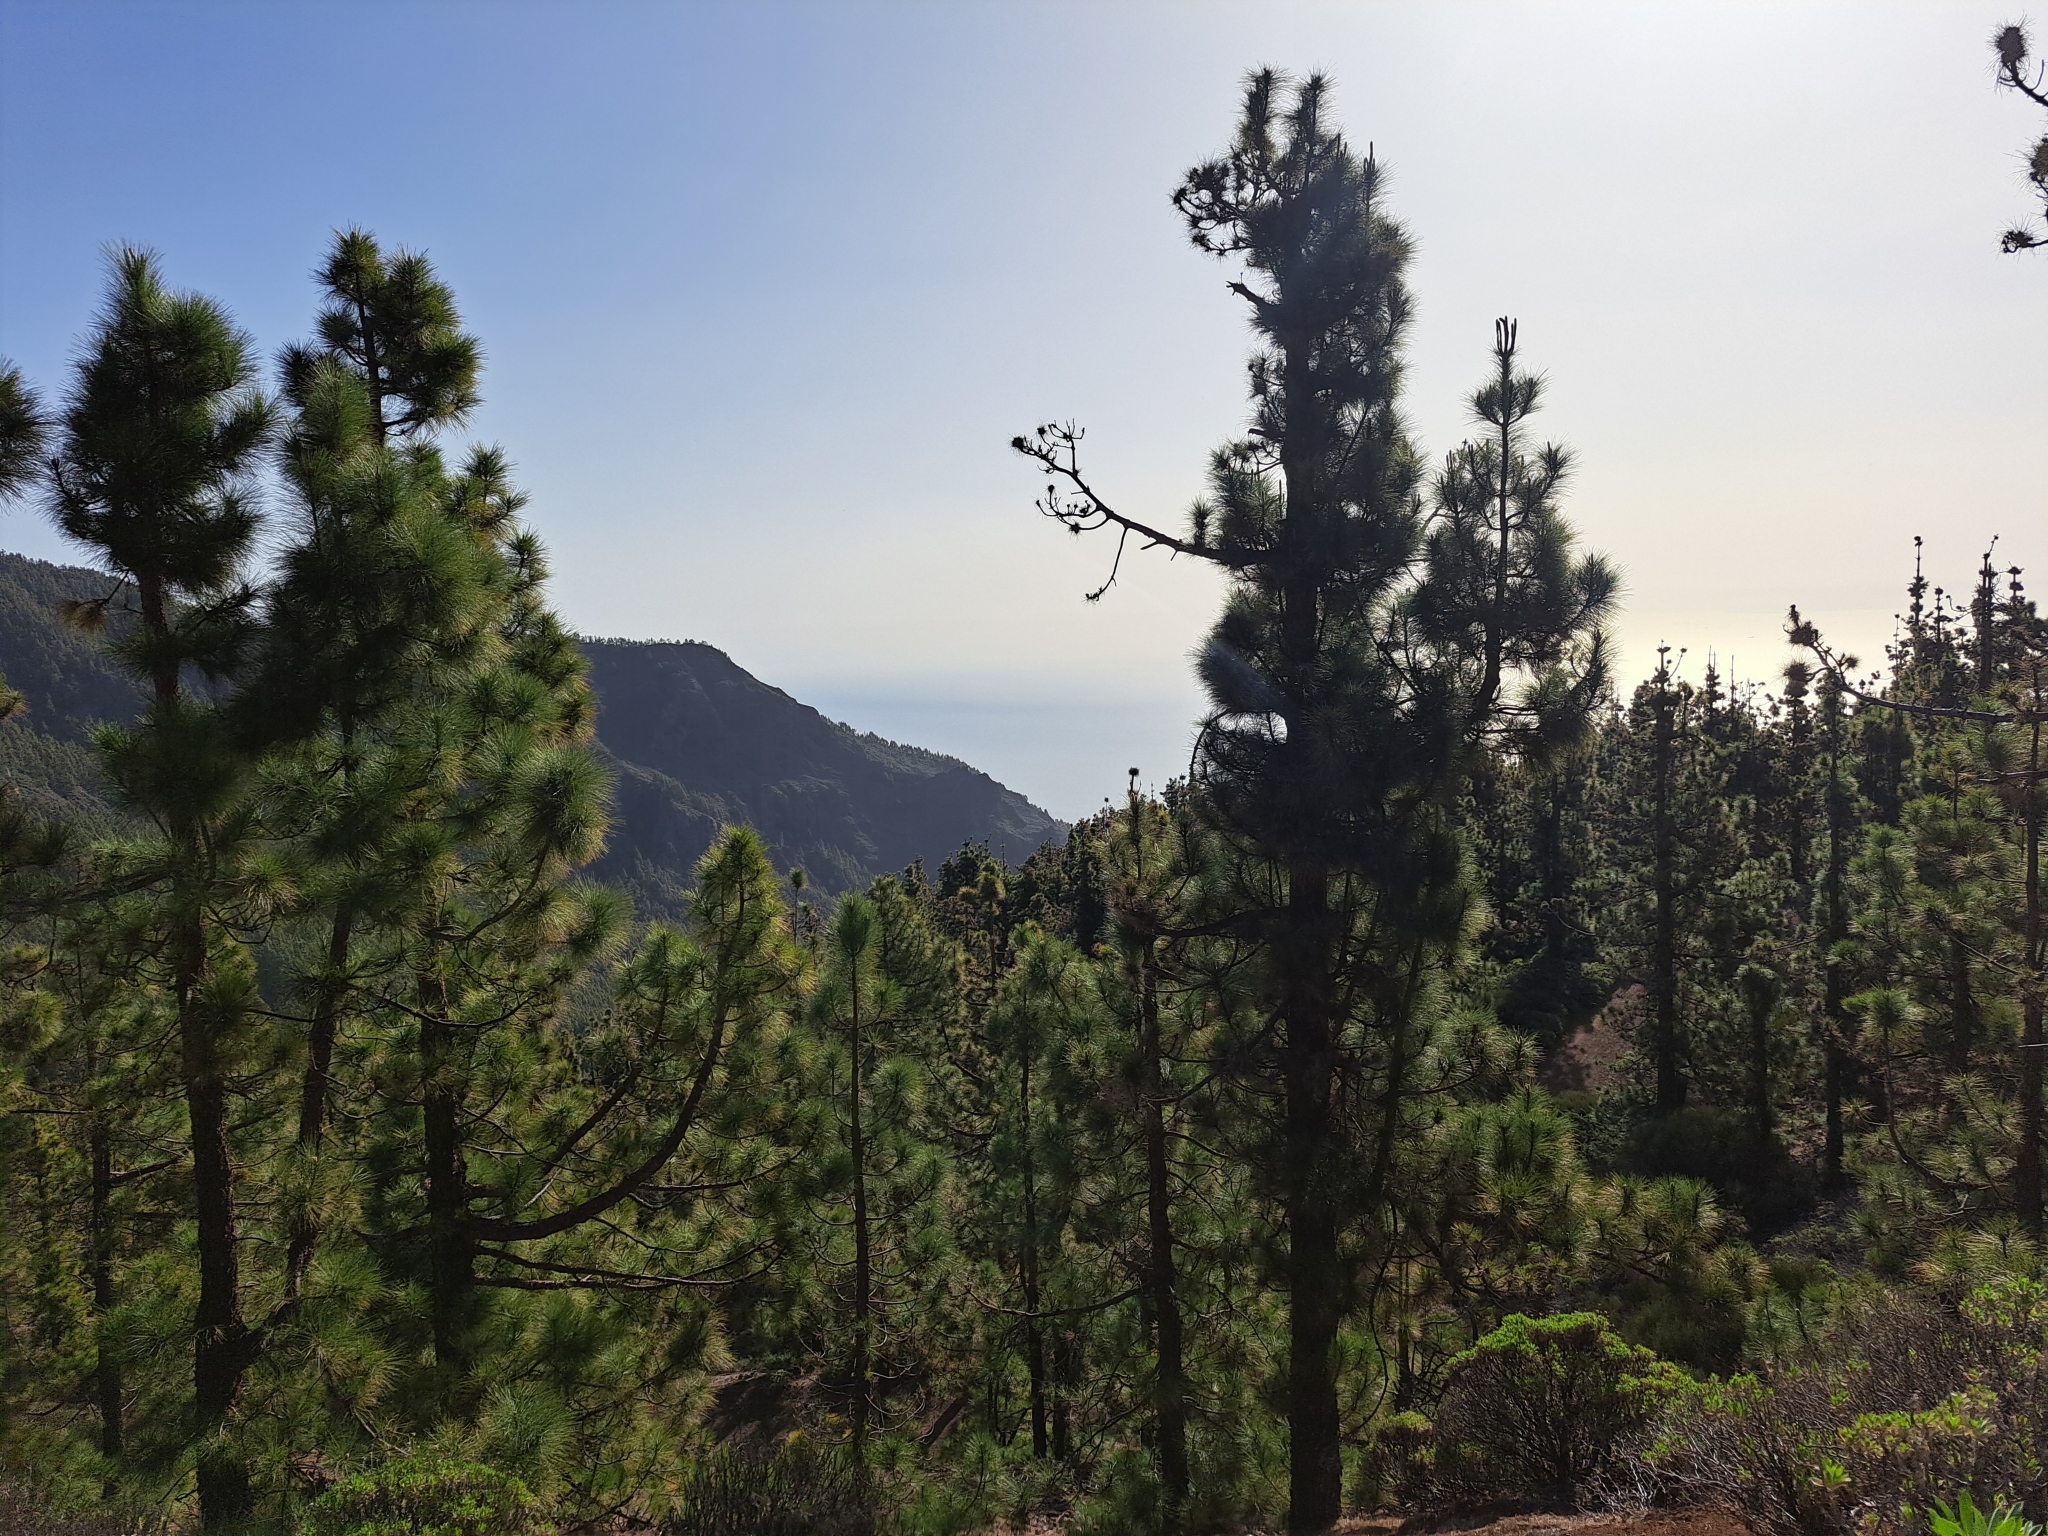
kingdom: Plantae
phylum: Tracheophyta
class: Pinopsida
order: Pinales
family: Pinaceae
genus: Pinus
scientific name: Pinus canariensis
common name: Canary islands pine
